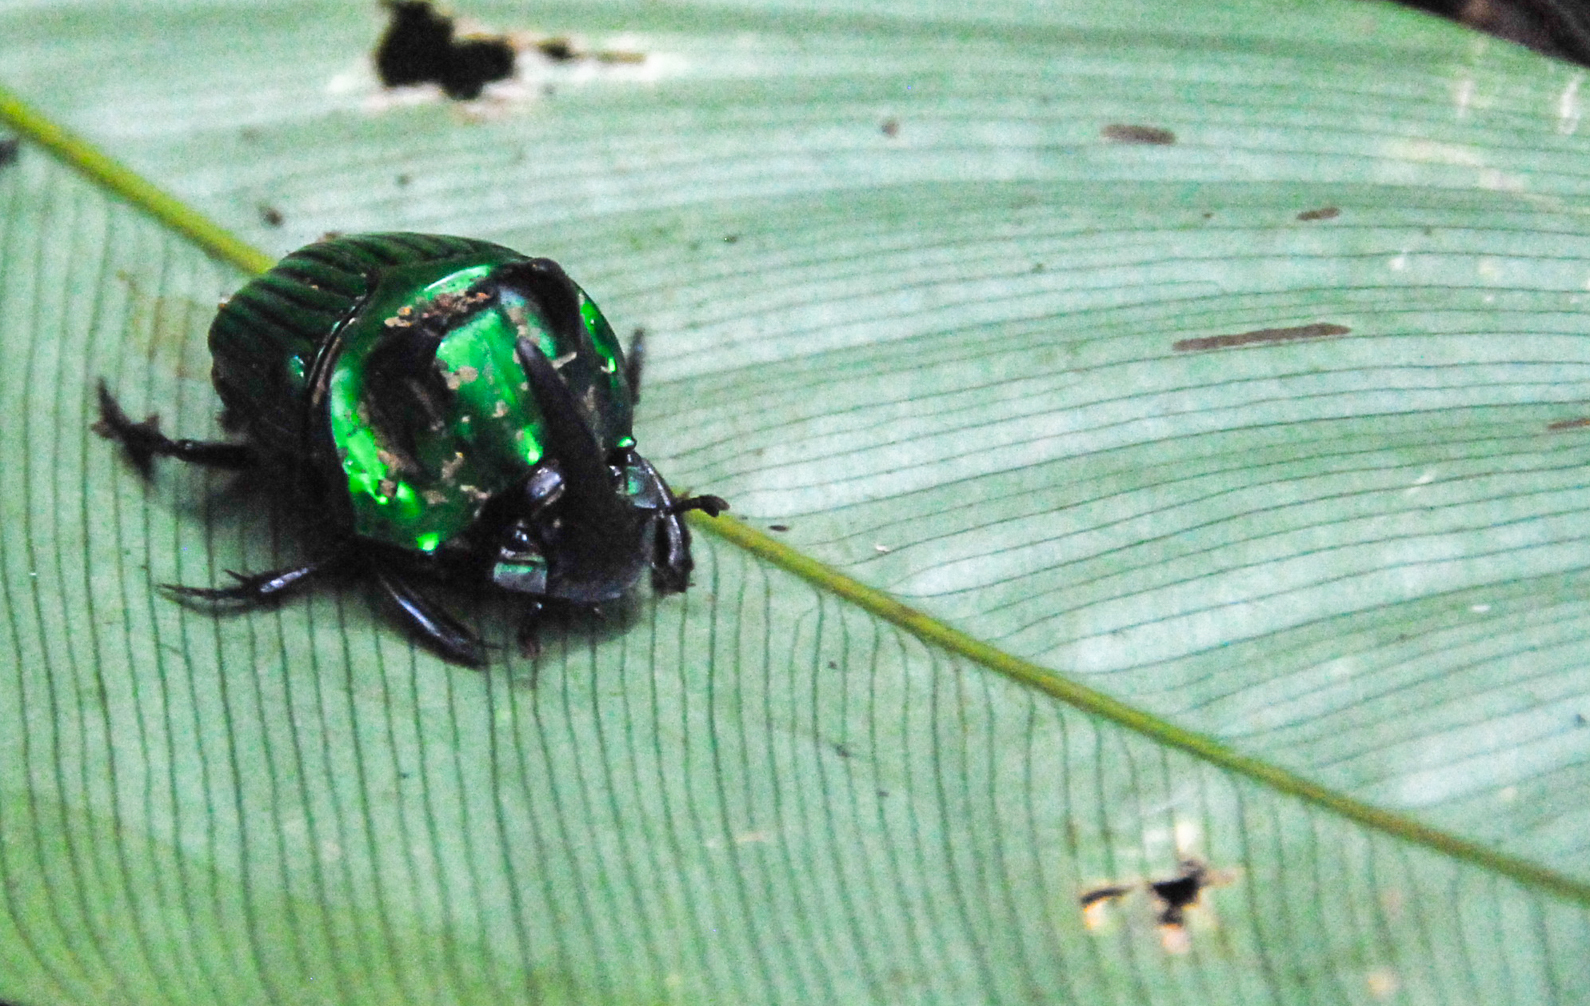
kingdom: Animalia
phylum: Arthropoda
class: Insecta
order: Coleoptera
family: Scarabaeidae
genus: Oxysternon
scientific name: Oxysternon conspicillatum
